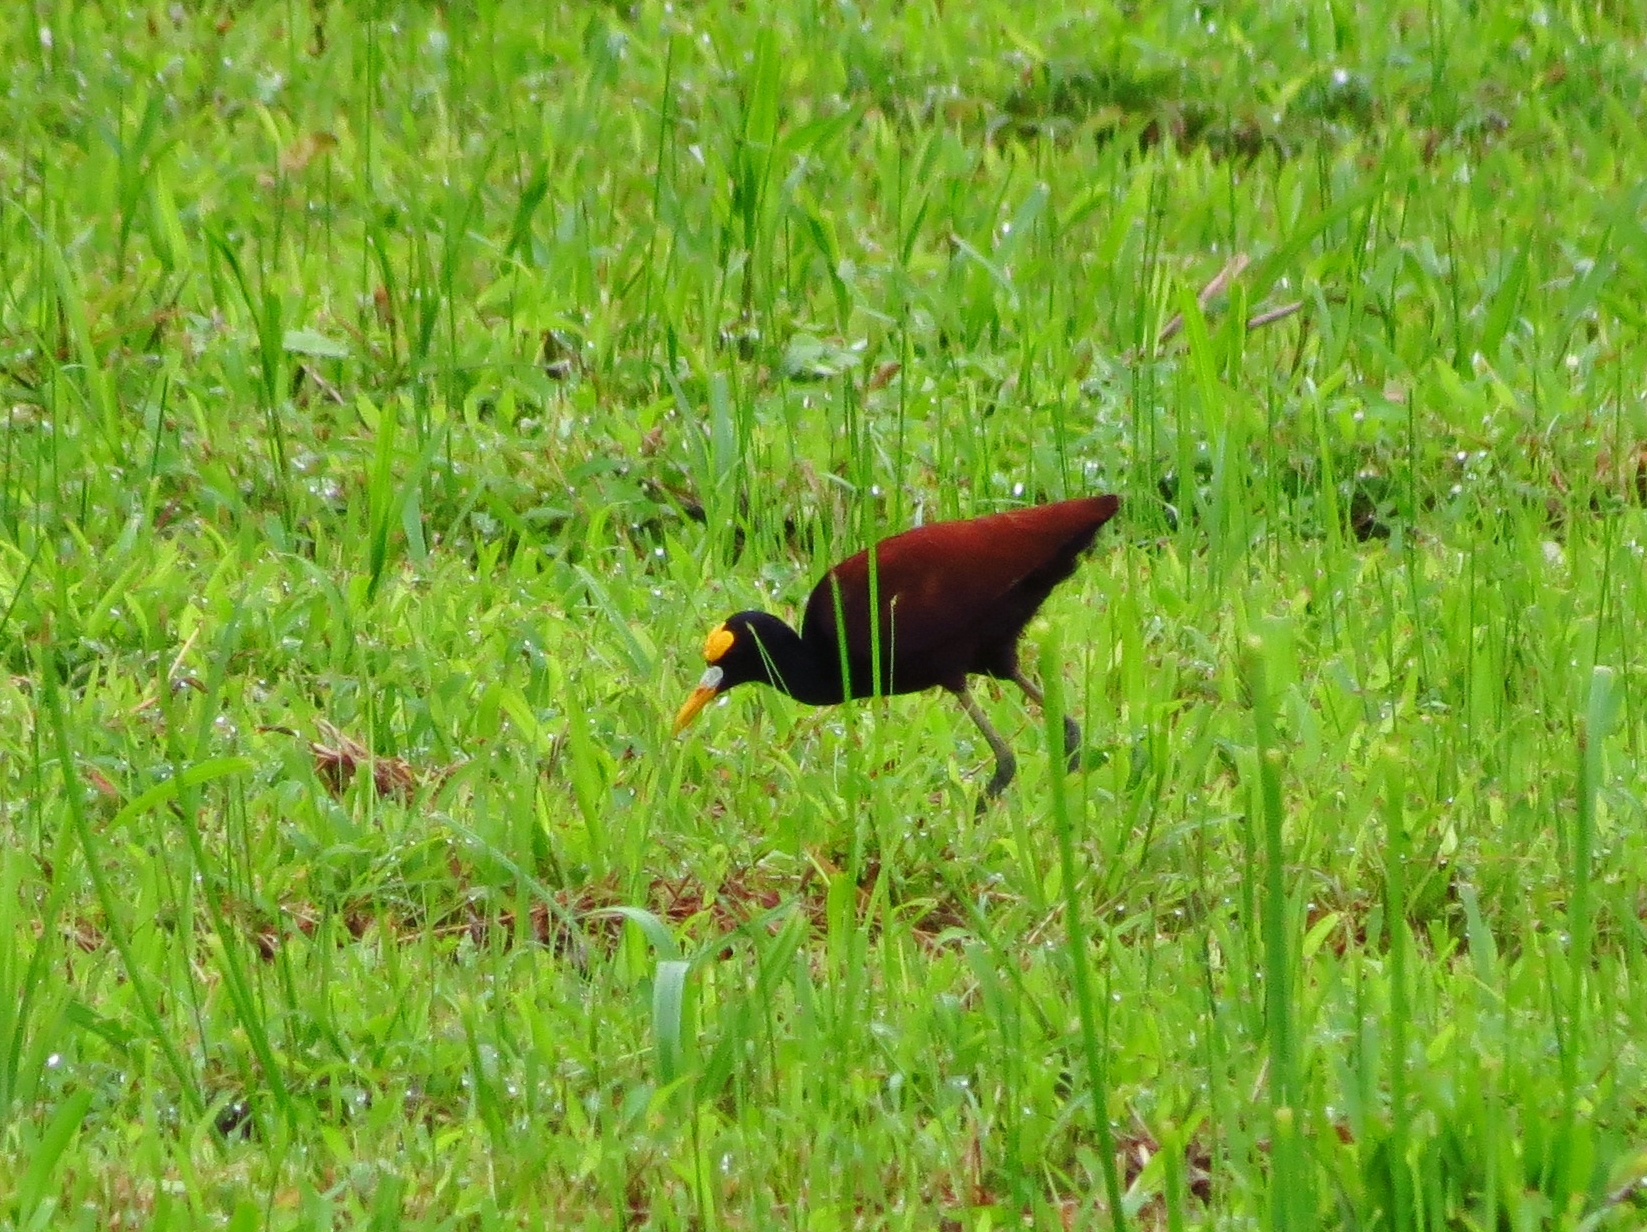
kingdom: Animalia
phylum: Chordata
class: Aves
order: Charadriiformes
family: Jacanidae
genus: Jacana
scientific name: Jacana spinosa
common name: Northern jacana
